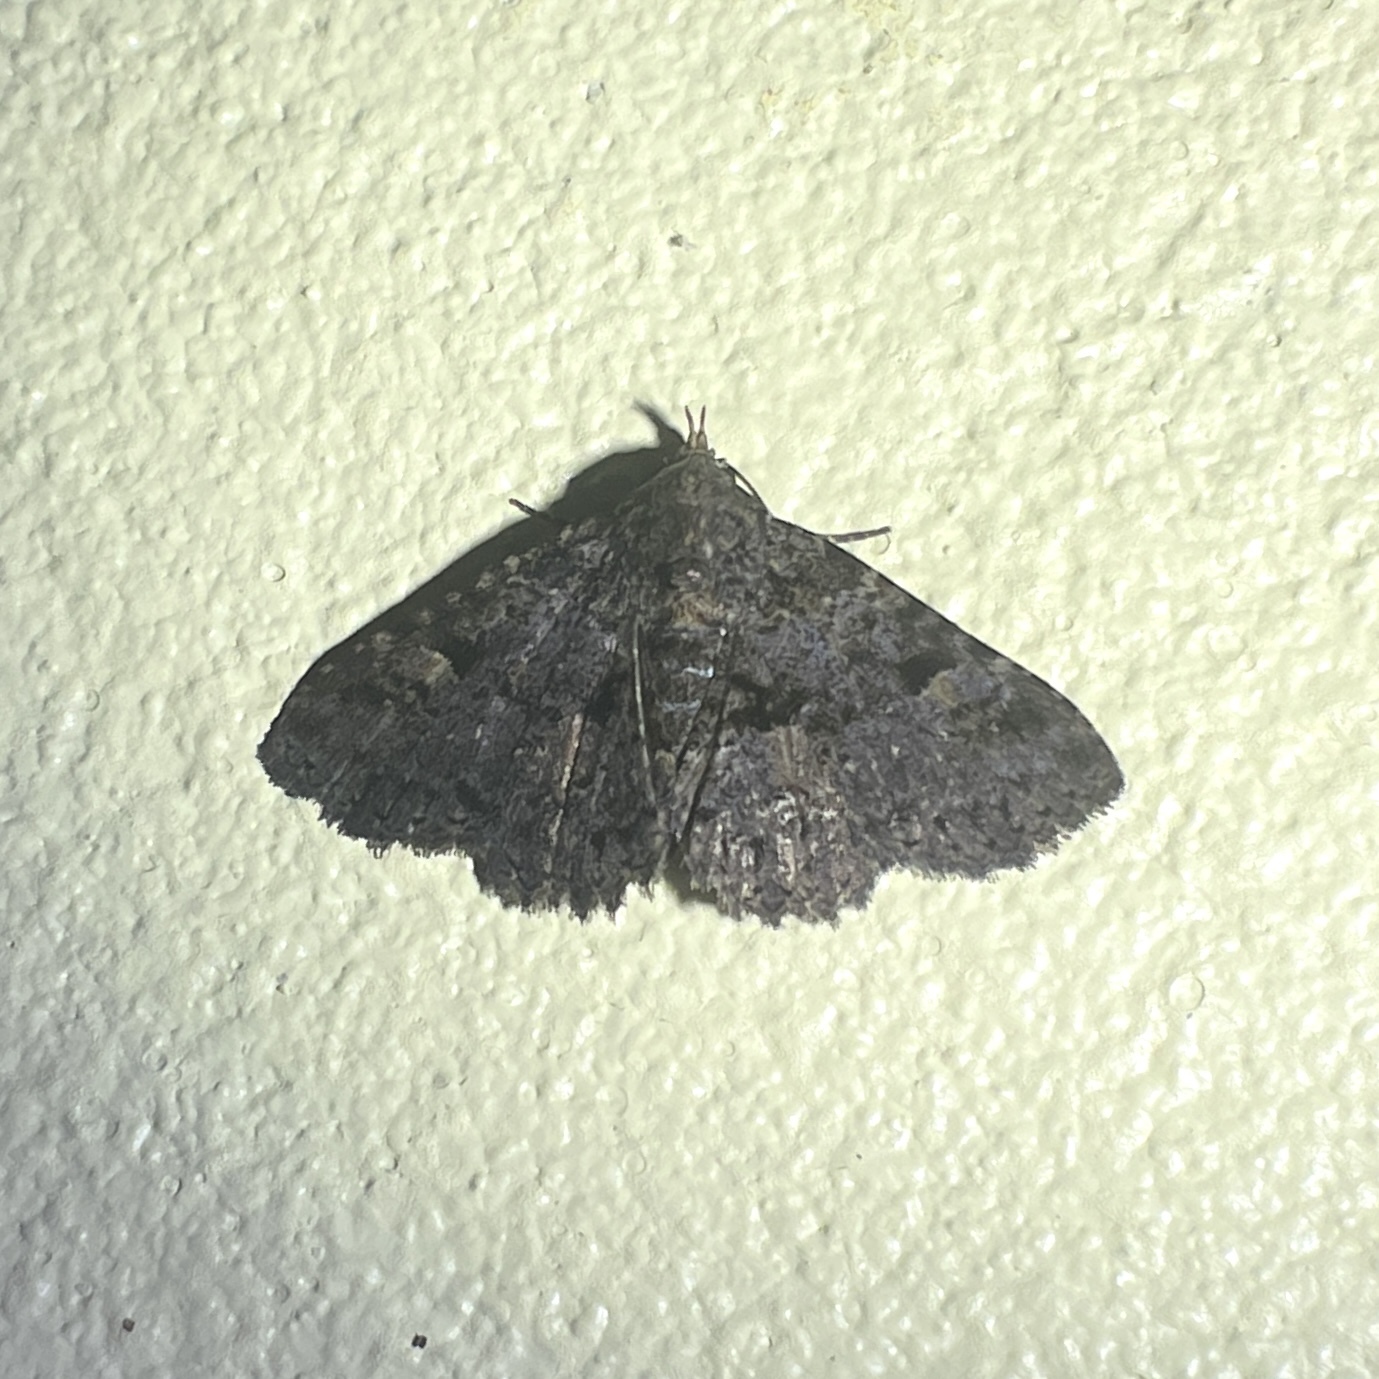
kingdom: Animalia
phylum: Arthropoda
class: Insecta
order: Lepidoptera
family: Erebidae
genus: Metalectra
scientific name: Metalectra praecisalis
